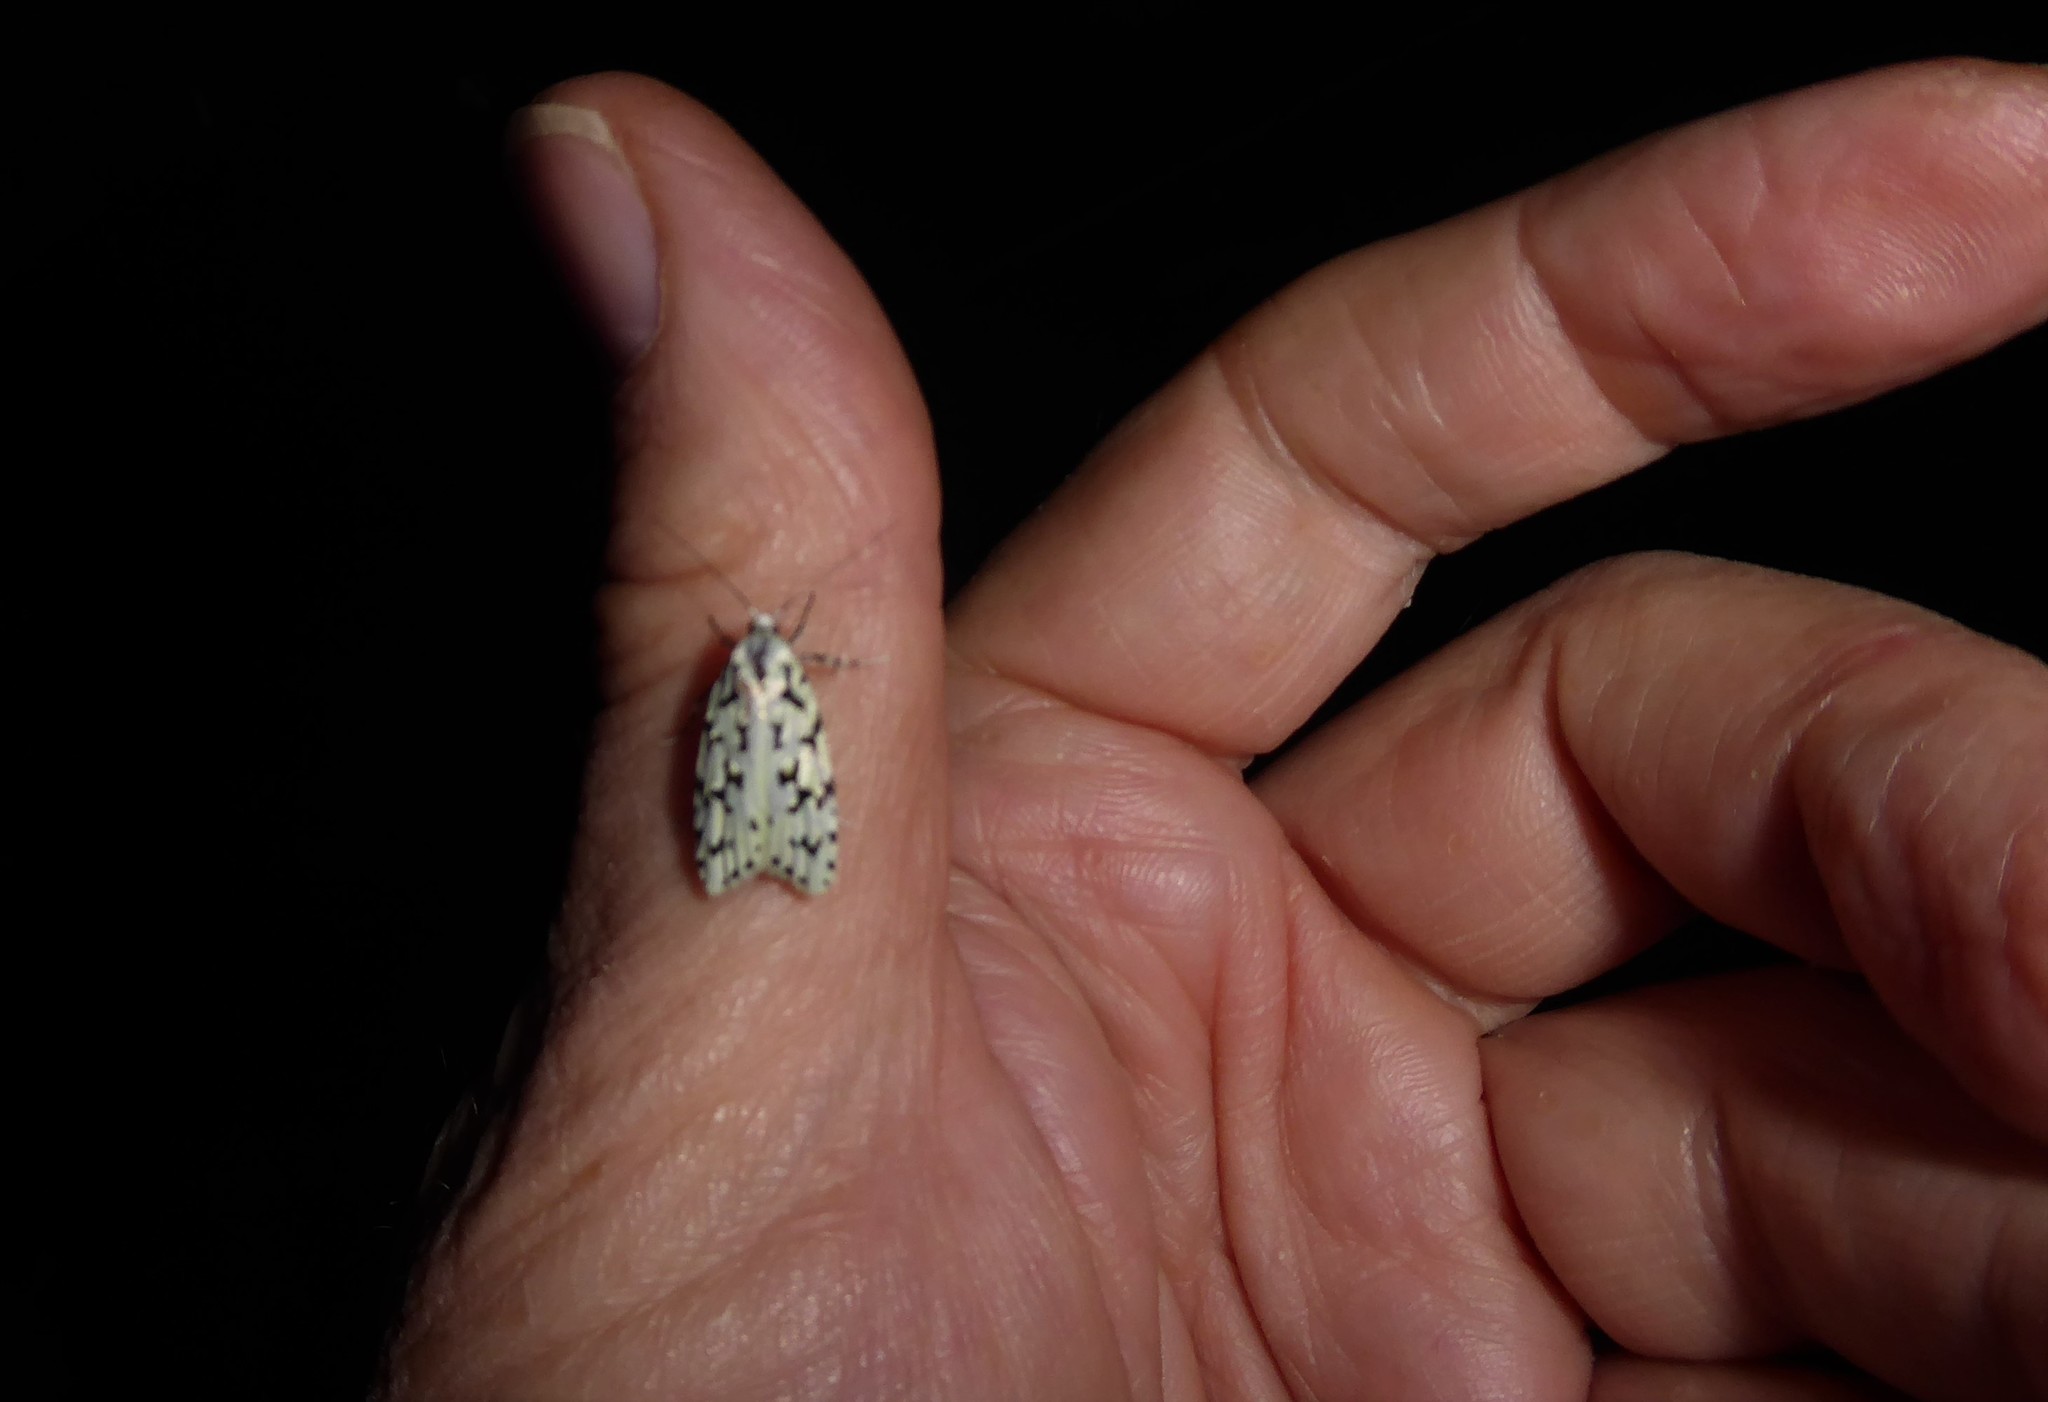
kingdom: Animalia
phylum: Arthropoda
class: Insecta
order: Lepidoptera
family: Oecophoridae
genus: Izatha
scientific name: Izatha huttoni
